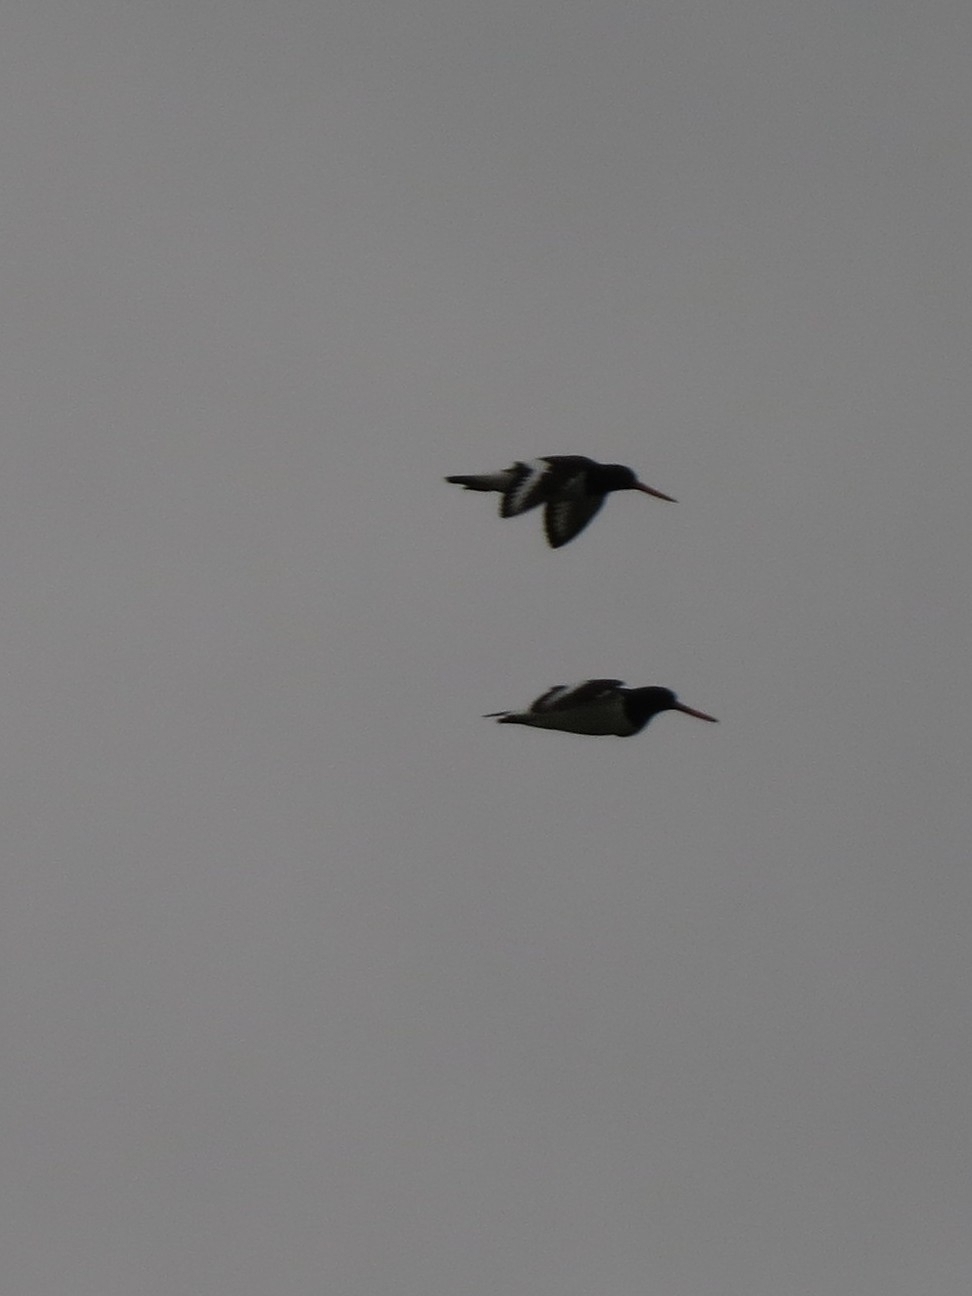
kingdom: Animalia
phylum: Chordata
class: Aves
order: Charadriiformes
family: Haematopodidae
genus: Haematopus
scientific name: Haematopus ostralegus
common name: Eurasian oystercatcher
